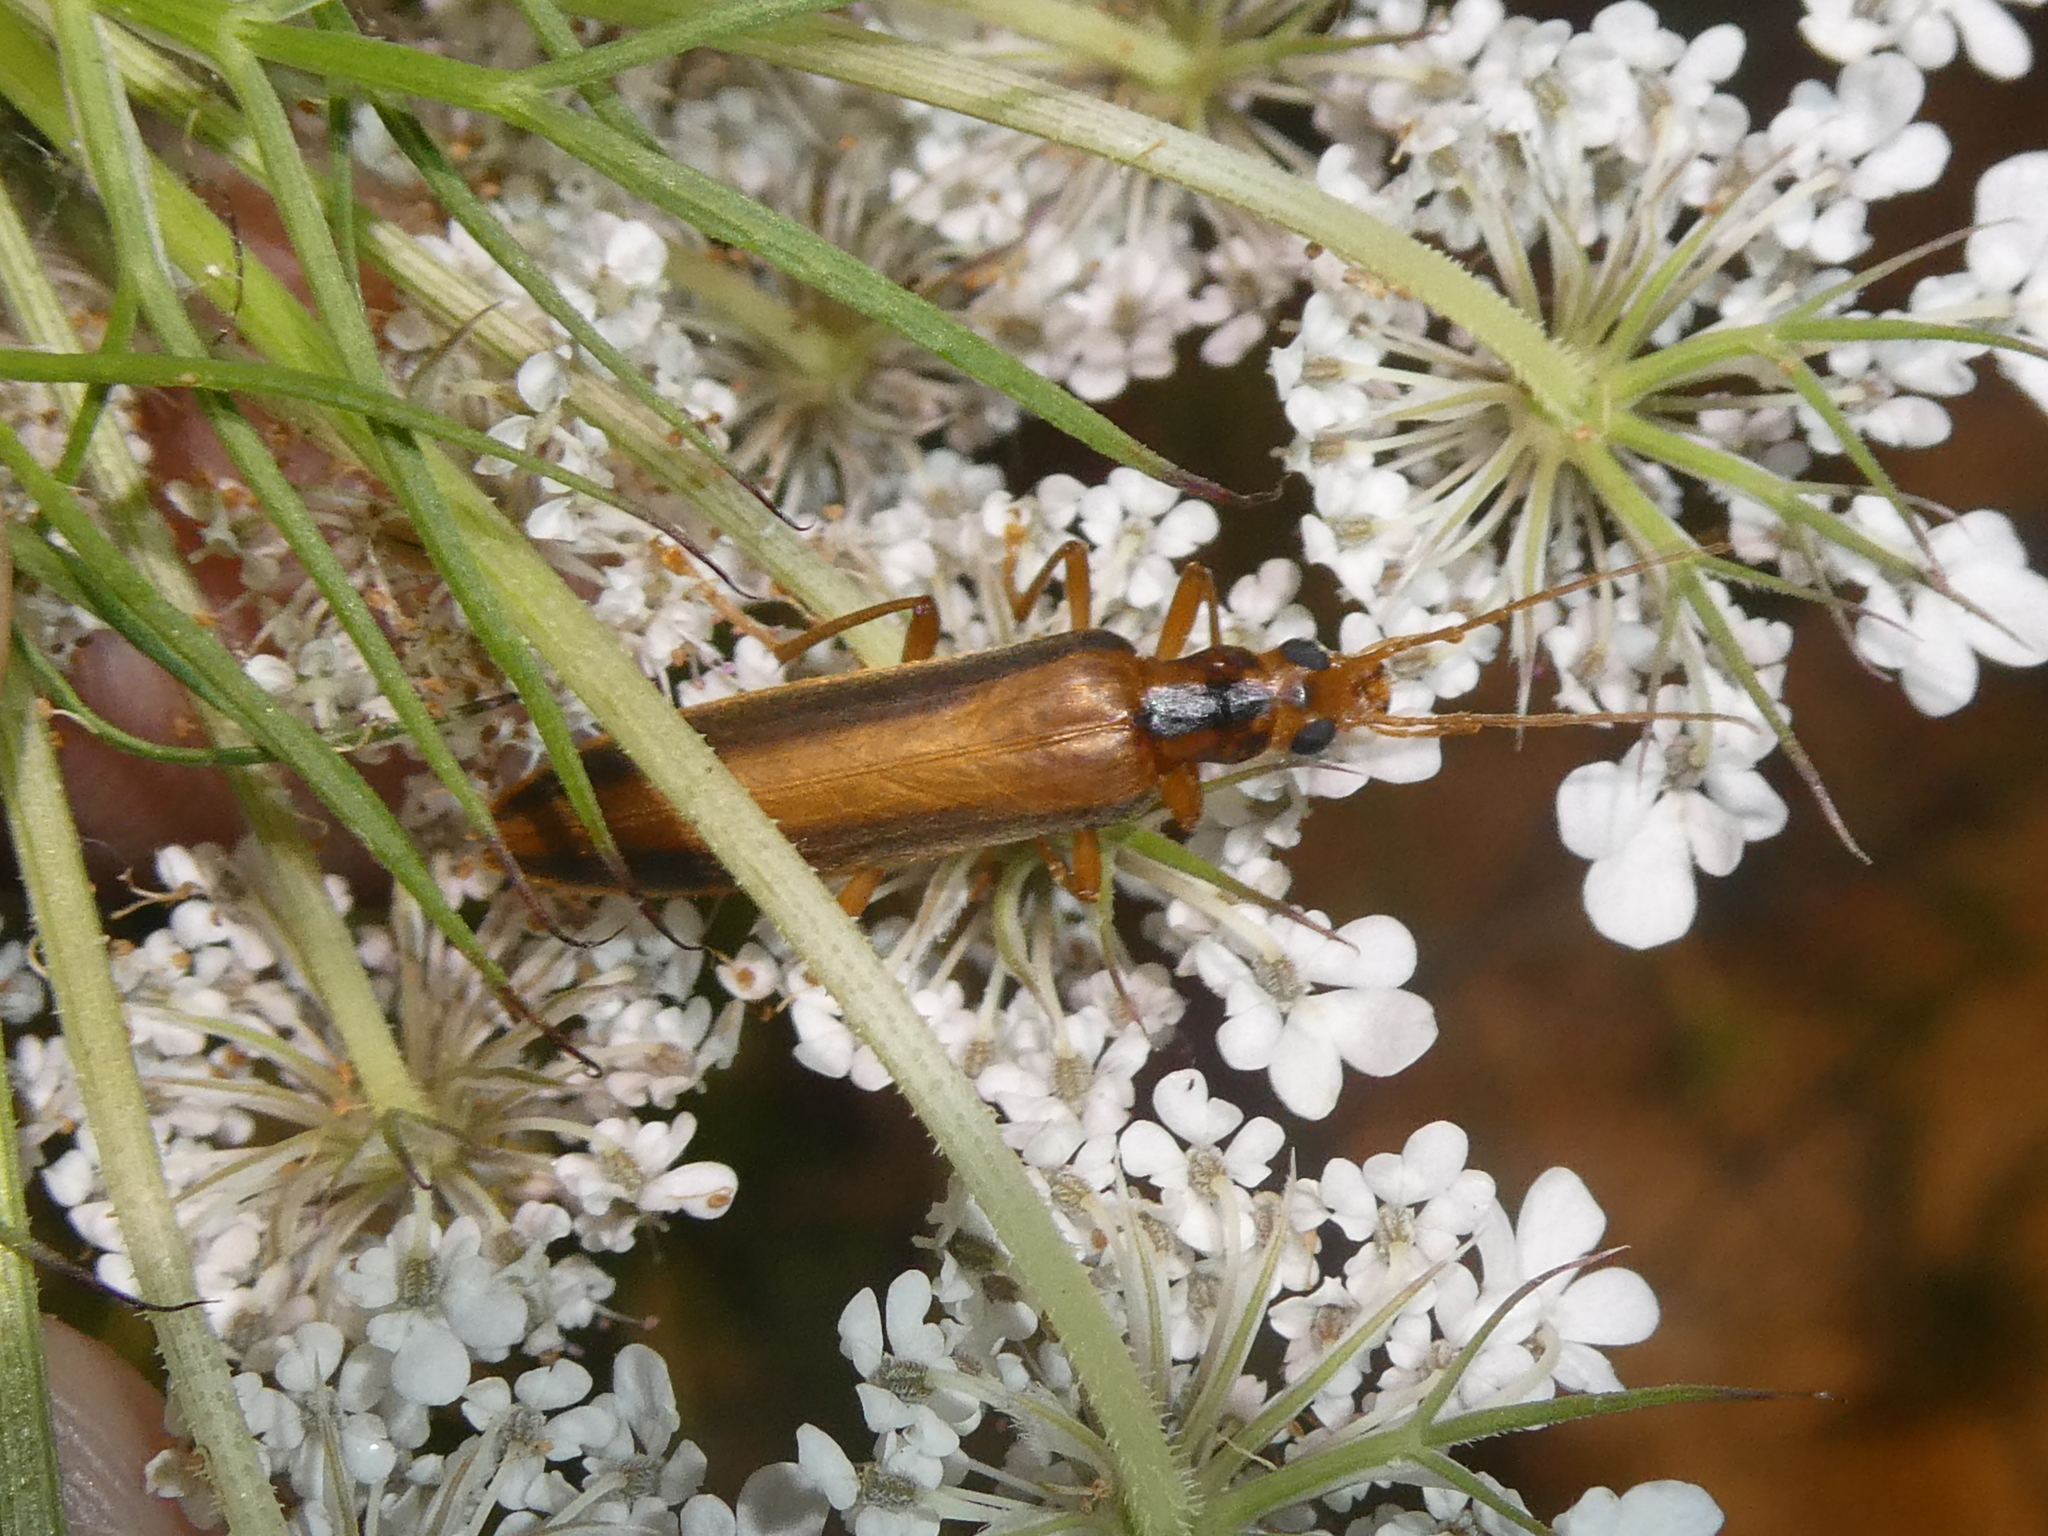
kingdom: Animalia
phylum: Arthropoda
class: Insecta
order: Coleoptera
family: Oedemeridae
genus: Thelyphassa
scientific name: Thelyphassa
